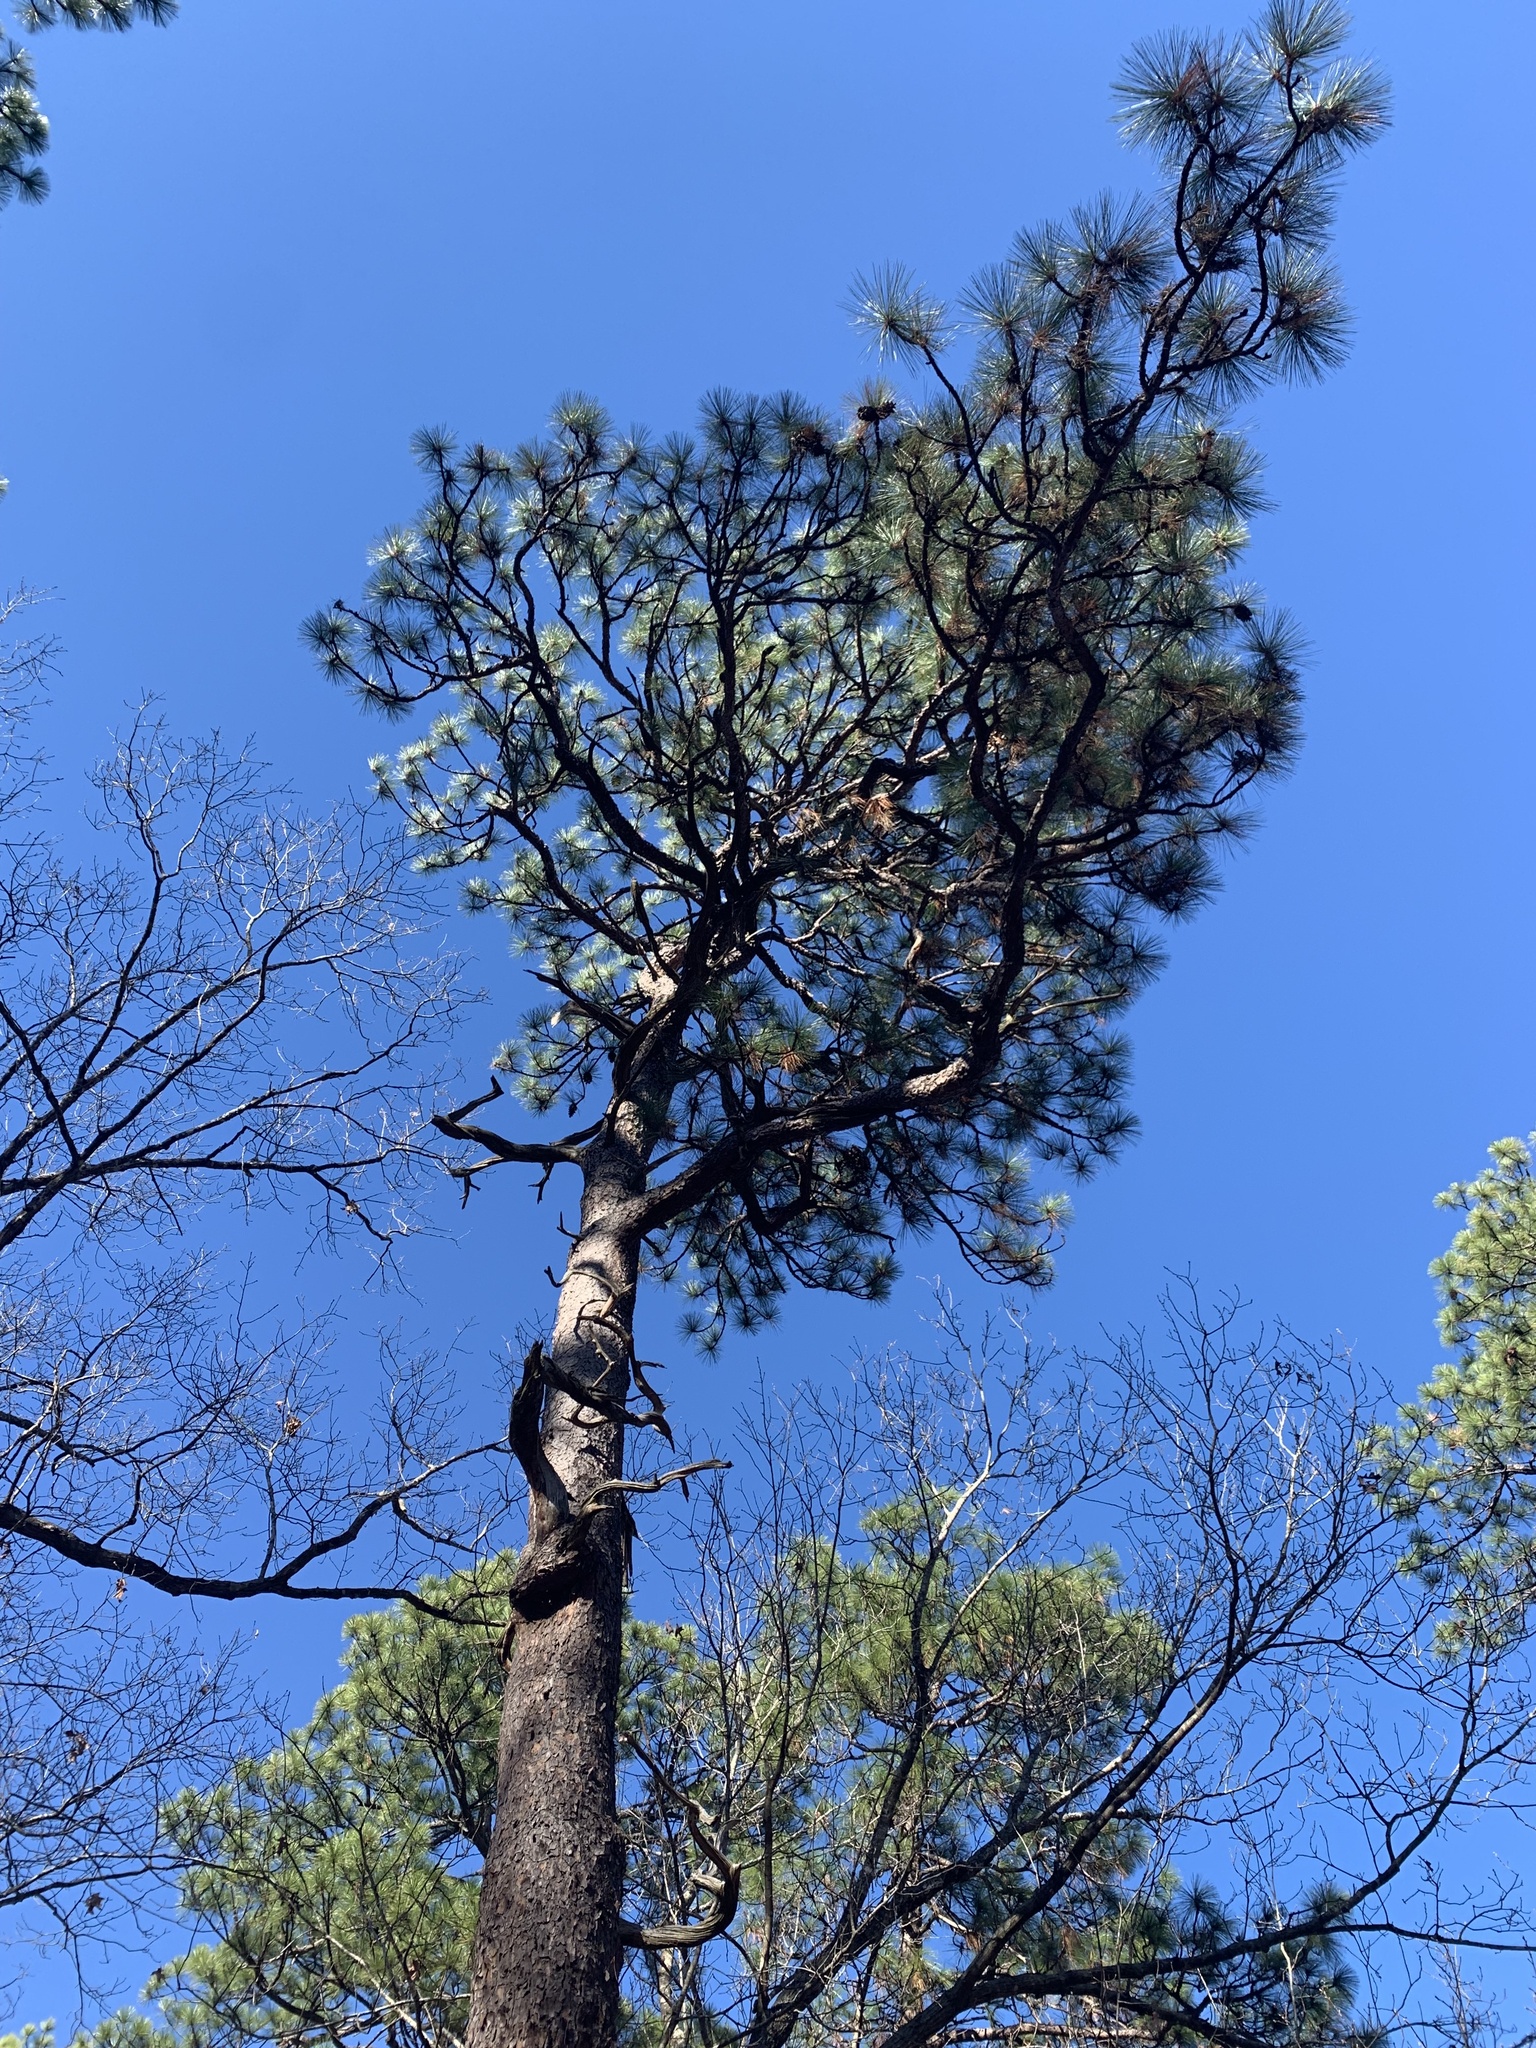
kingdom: Plantae
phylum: Tracheophyta
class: Pinopsida
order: Pinales
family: Pinaceae
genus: Pinus
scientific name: Pinus palustris
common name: Longleaf pine
